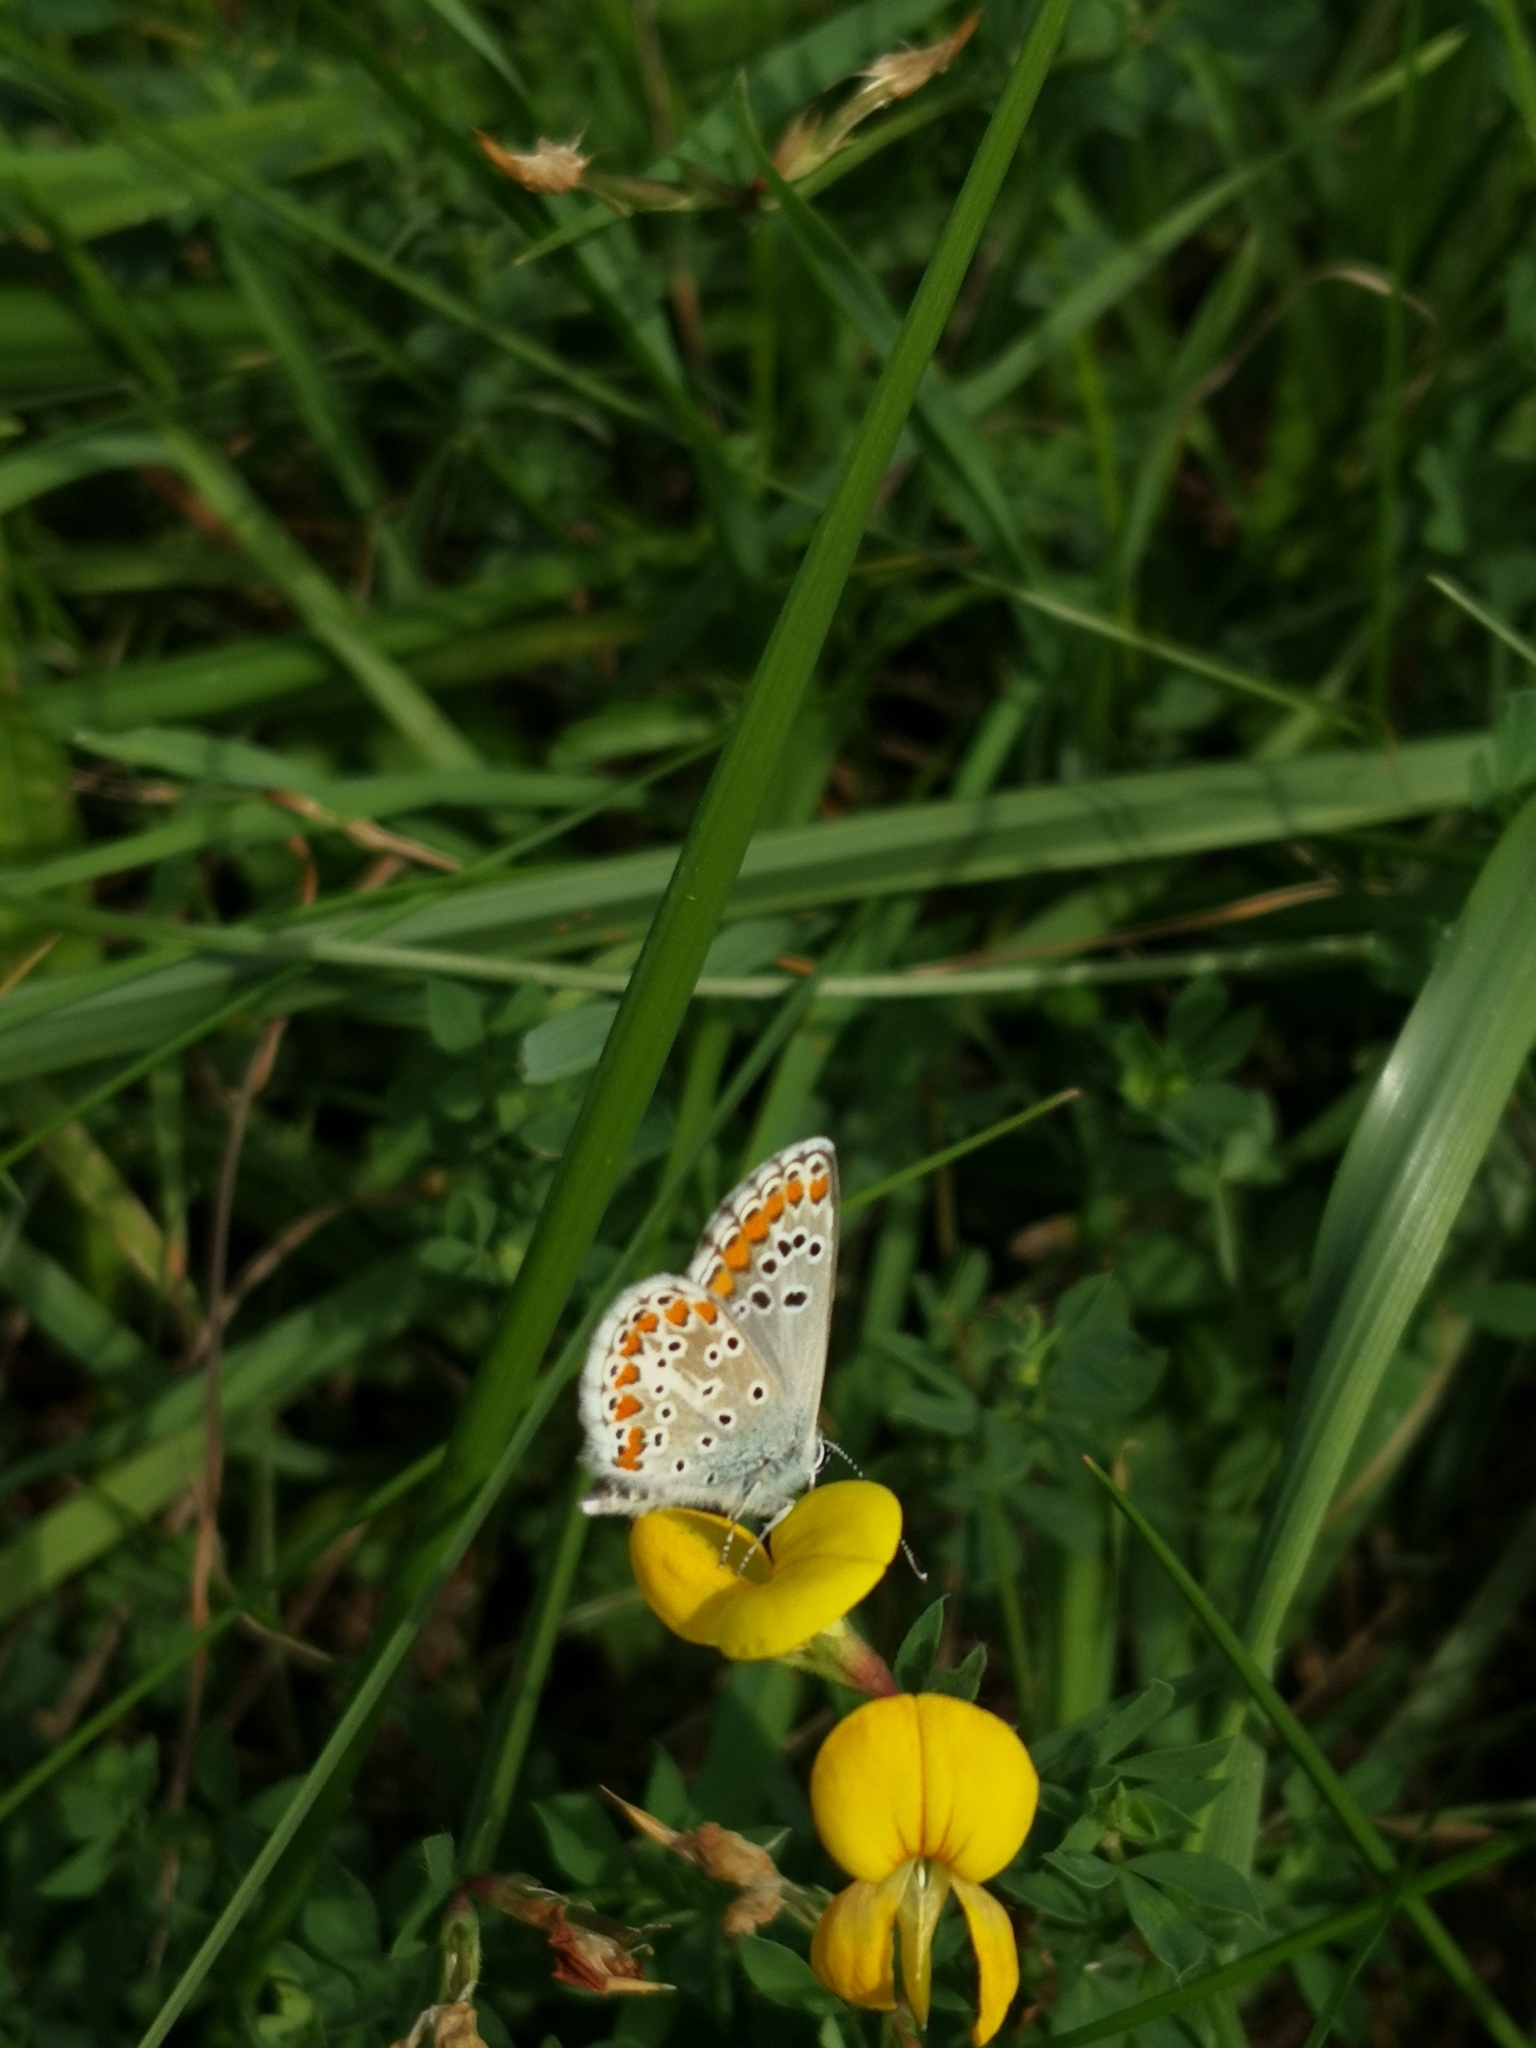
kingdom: Animalia
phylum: Arthropoda
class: Insecta
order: Lepidoptera
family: Lycaenidae
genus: Aricia
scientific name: Aricia agestis
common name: Brown argus
